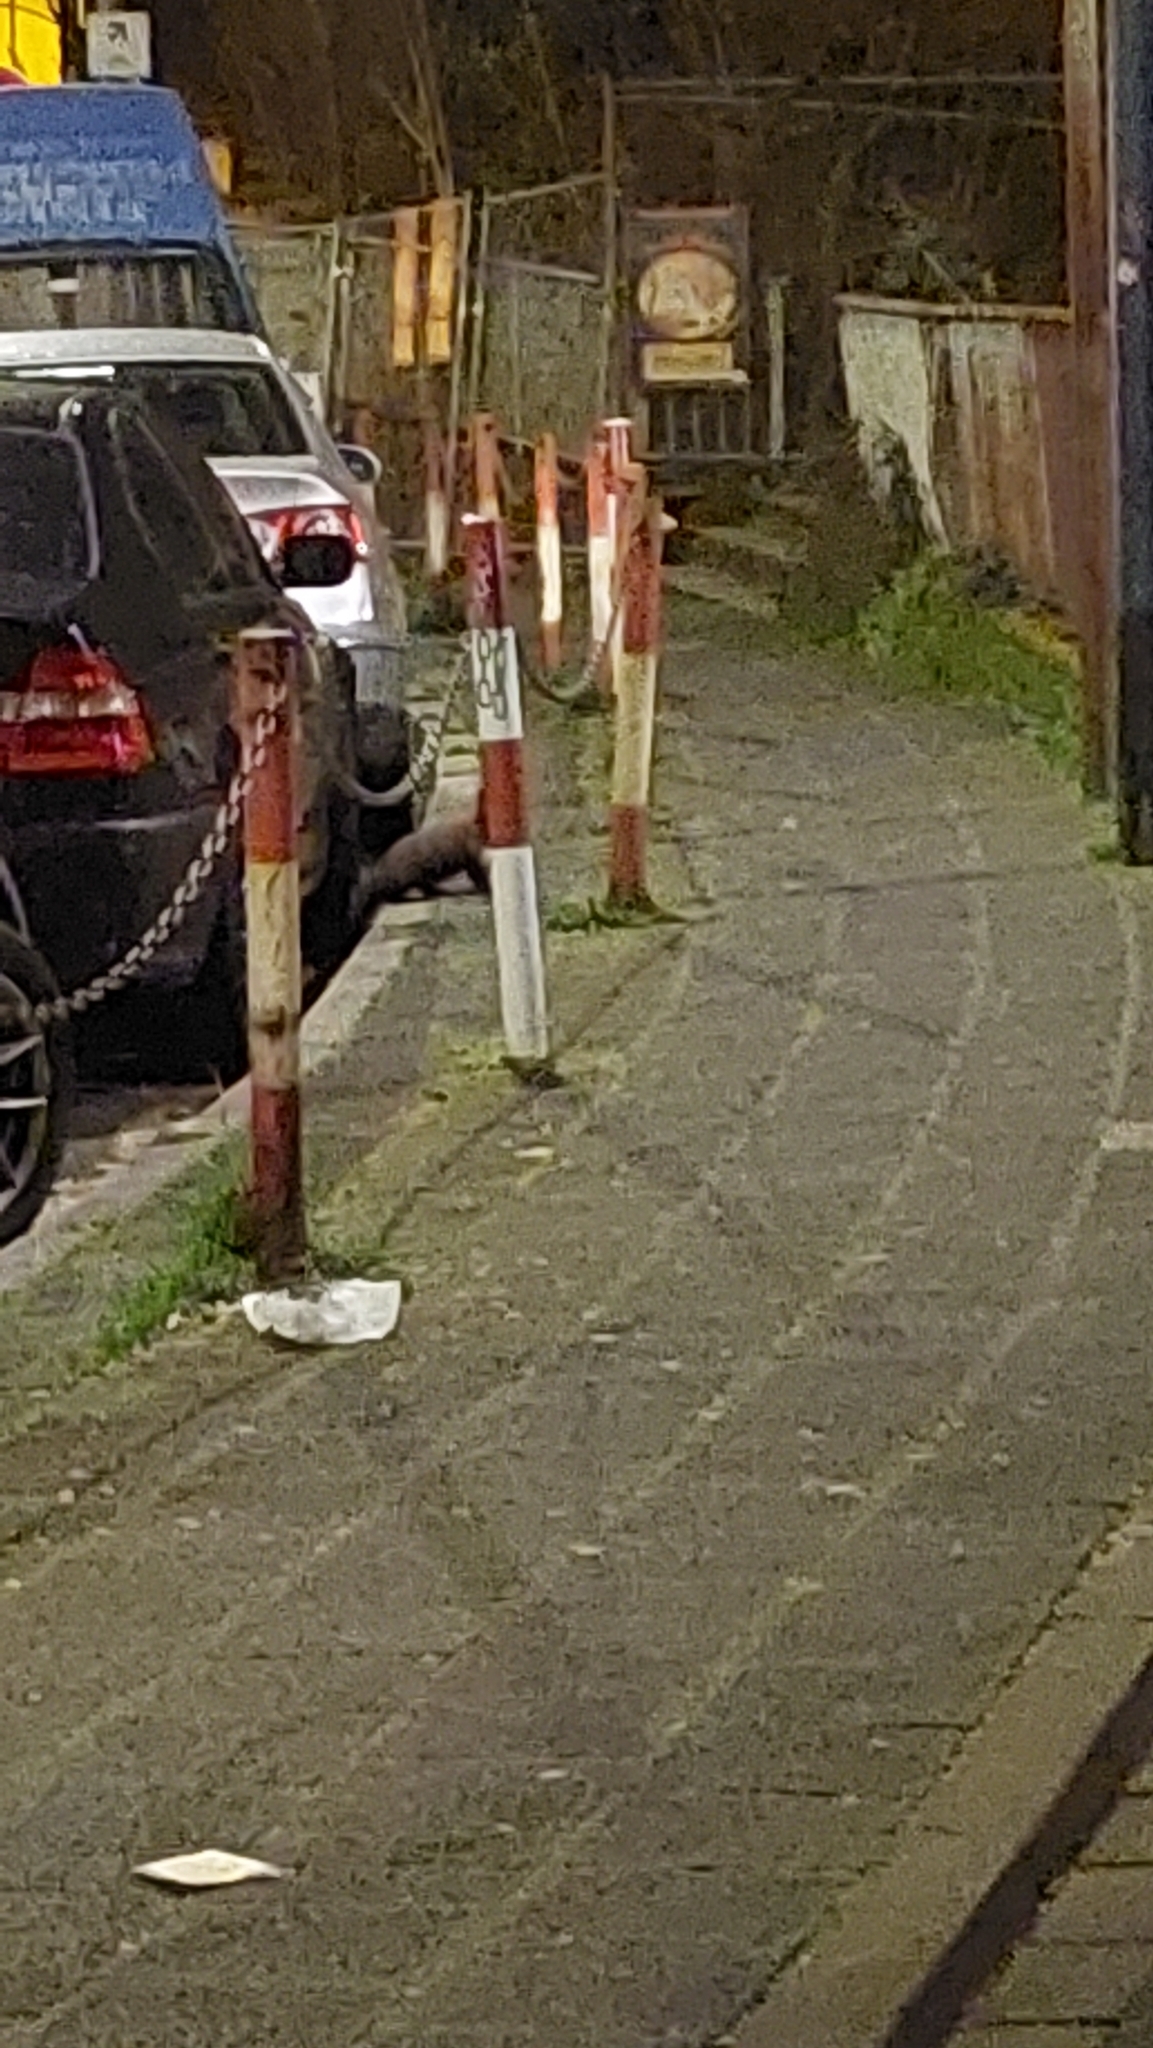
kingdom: Animalia
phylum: Chordata
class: Mammalia
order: Carnivora
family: Mustelidae
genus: Martes
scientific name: Martes foina
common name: Beech marten
